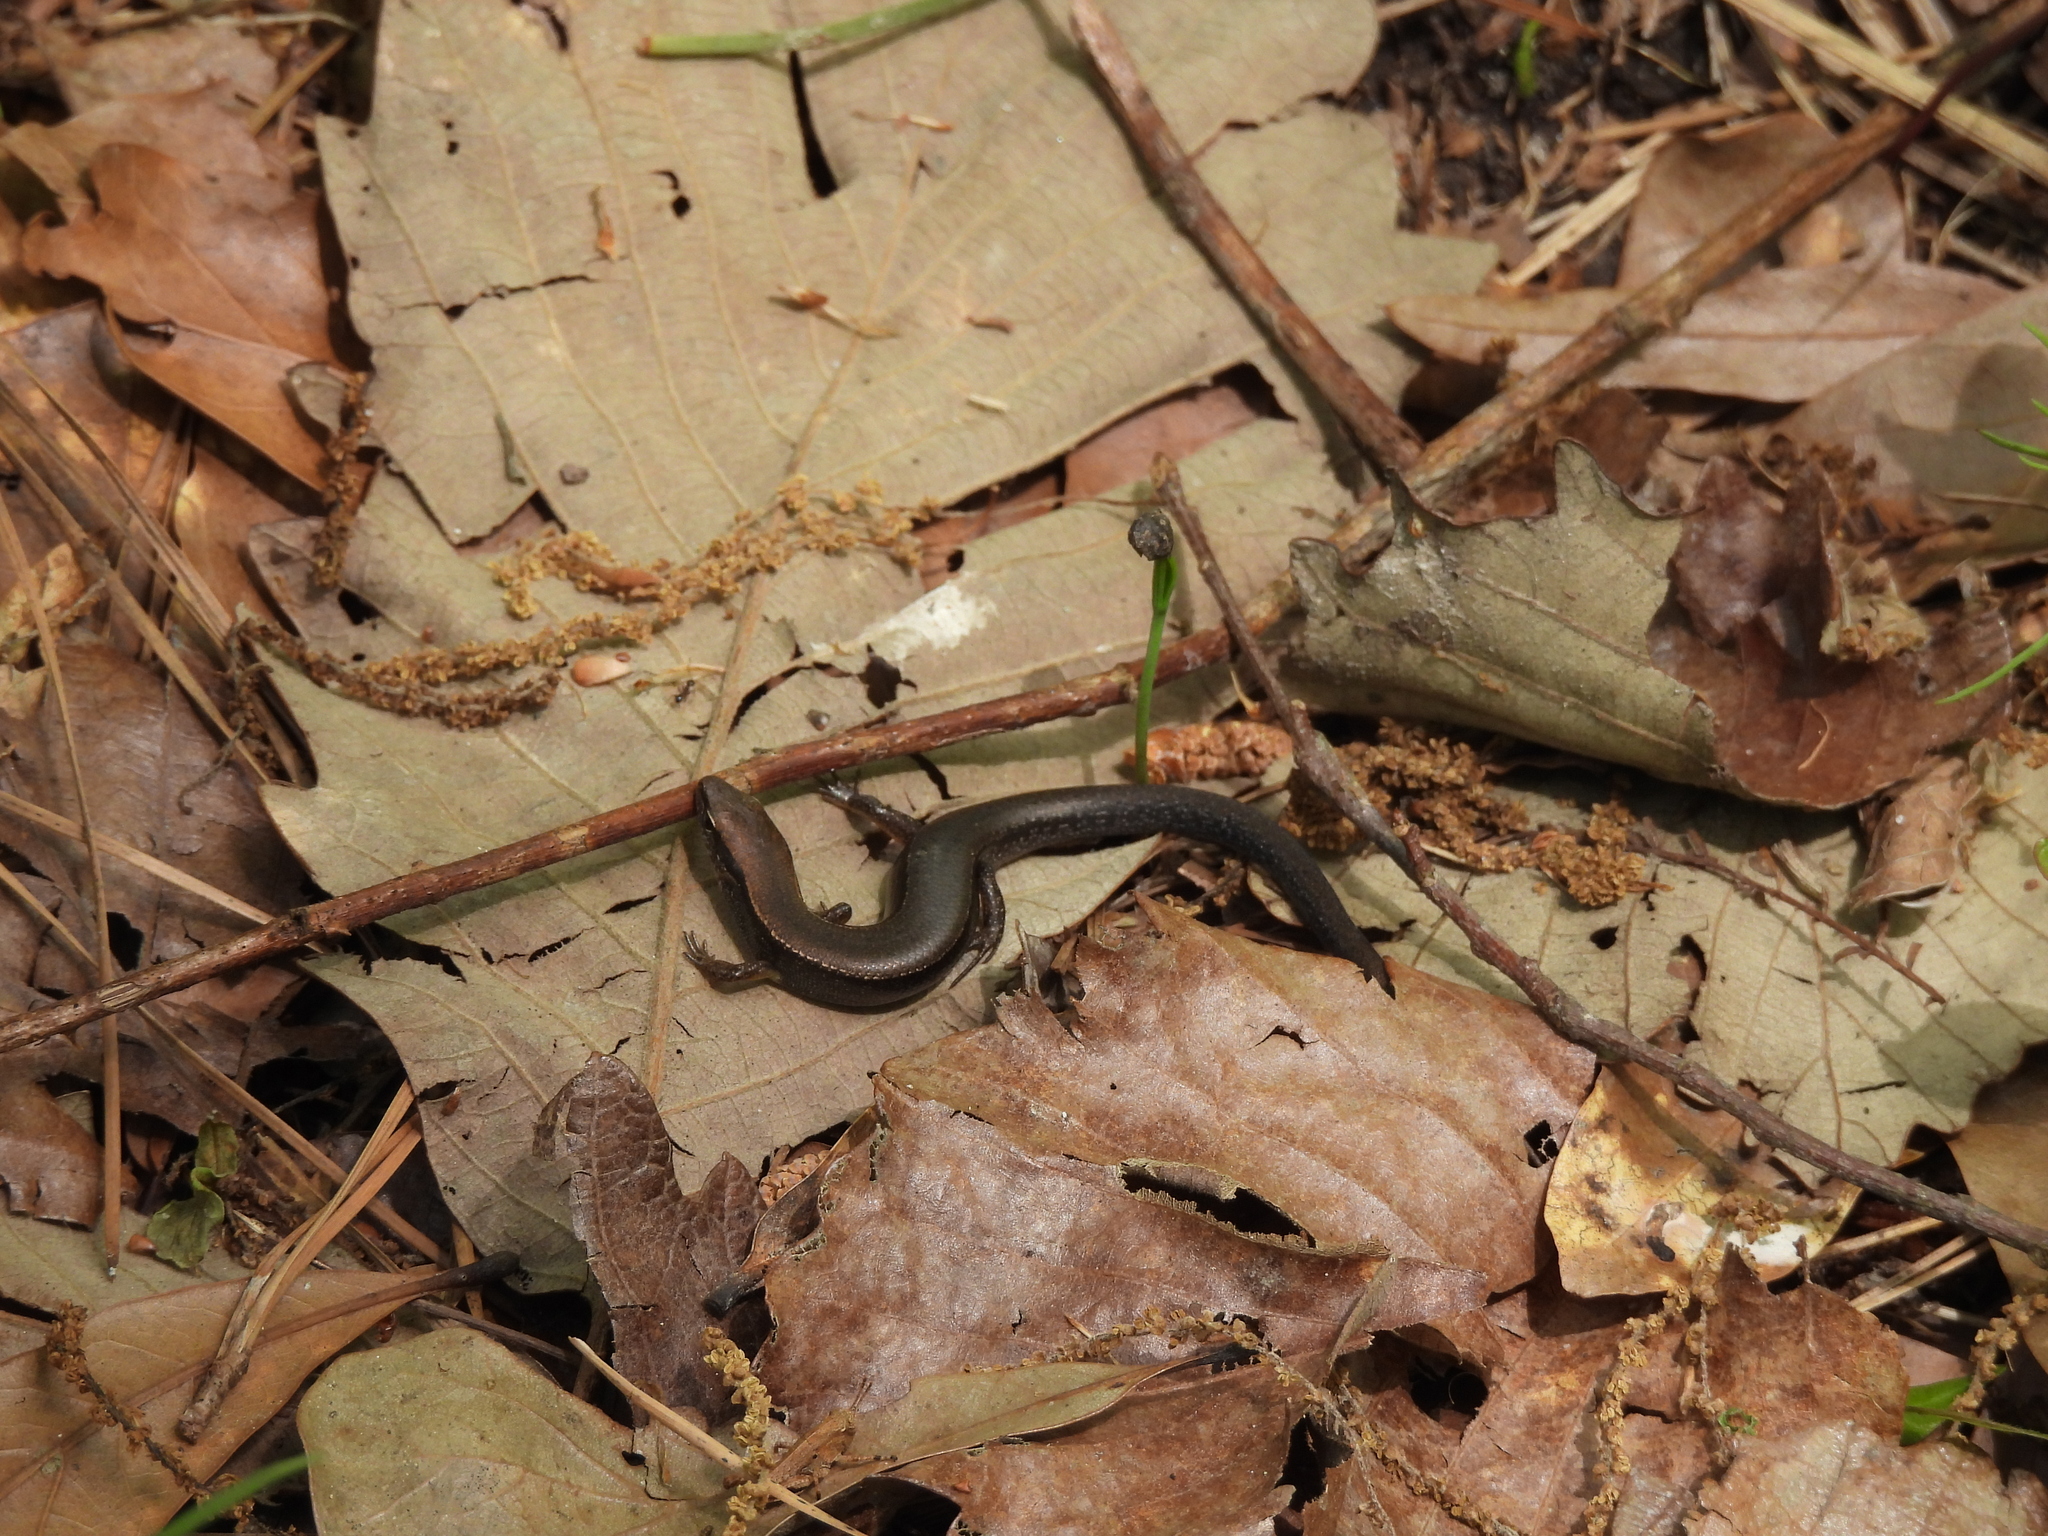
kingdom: Animalia
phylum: Chordata
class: Squamata
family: Scincidae
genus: Scincella
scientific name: Scincella lateralis
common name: Ground skink
